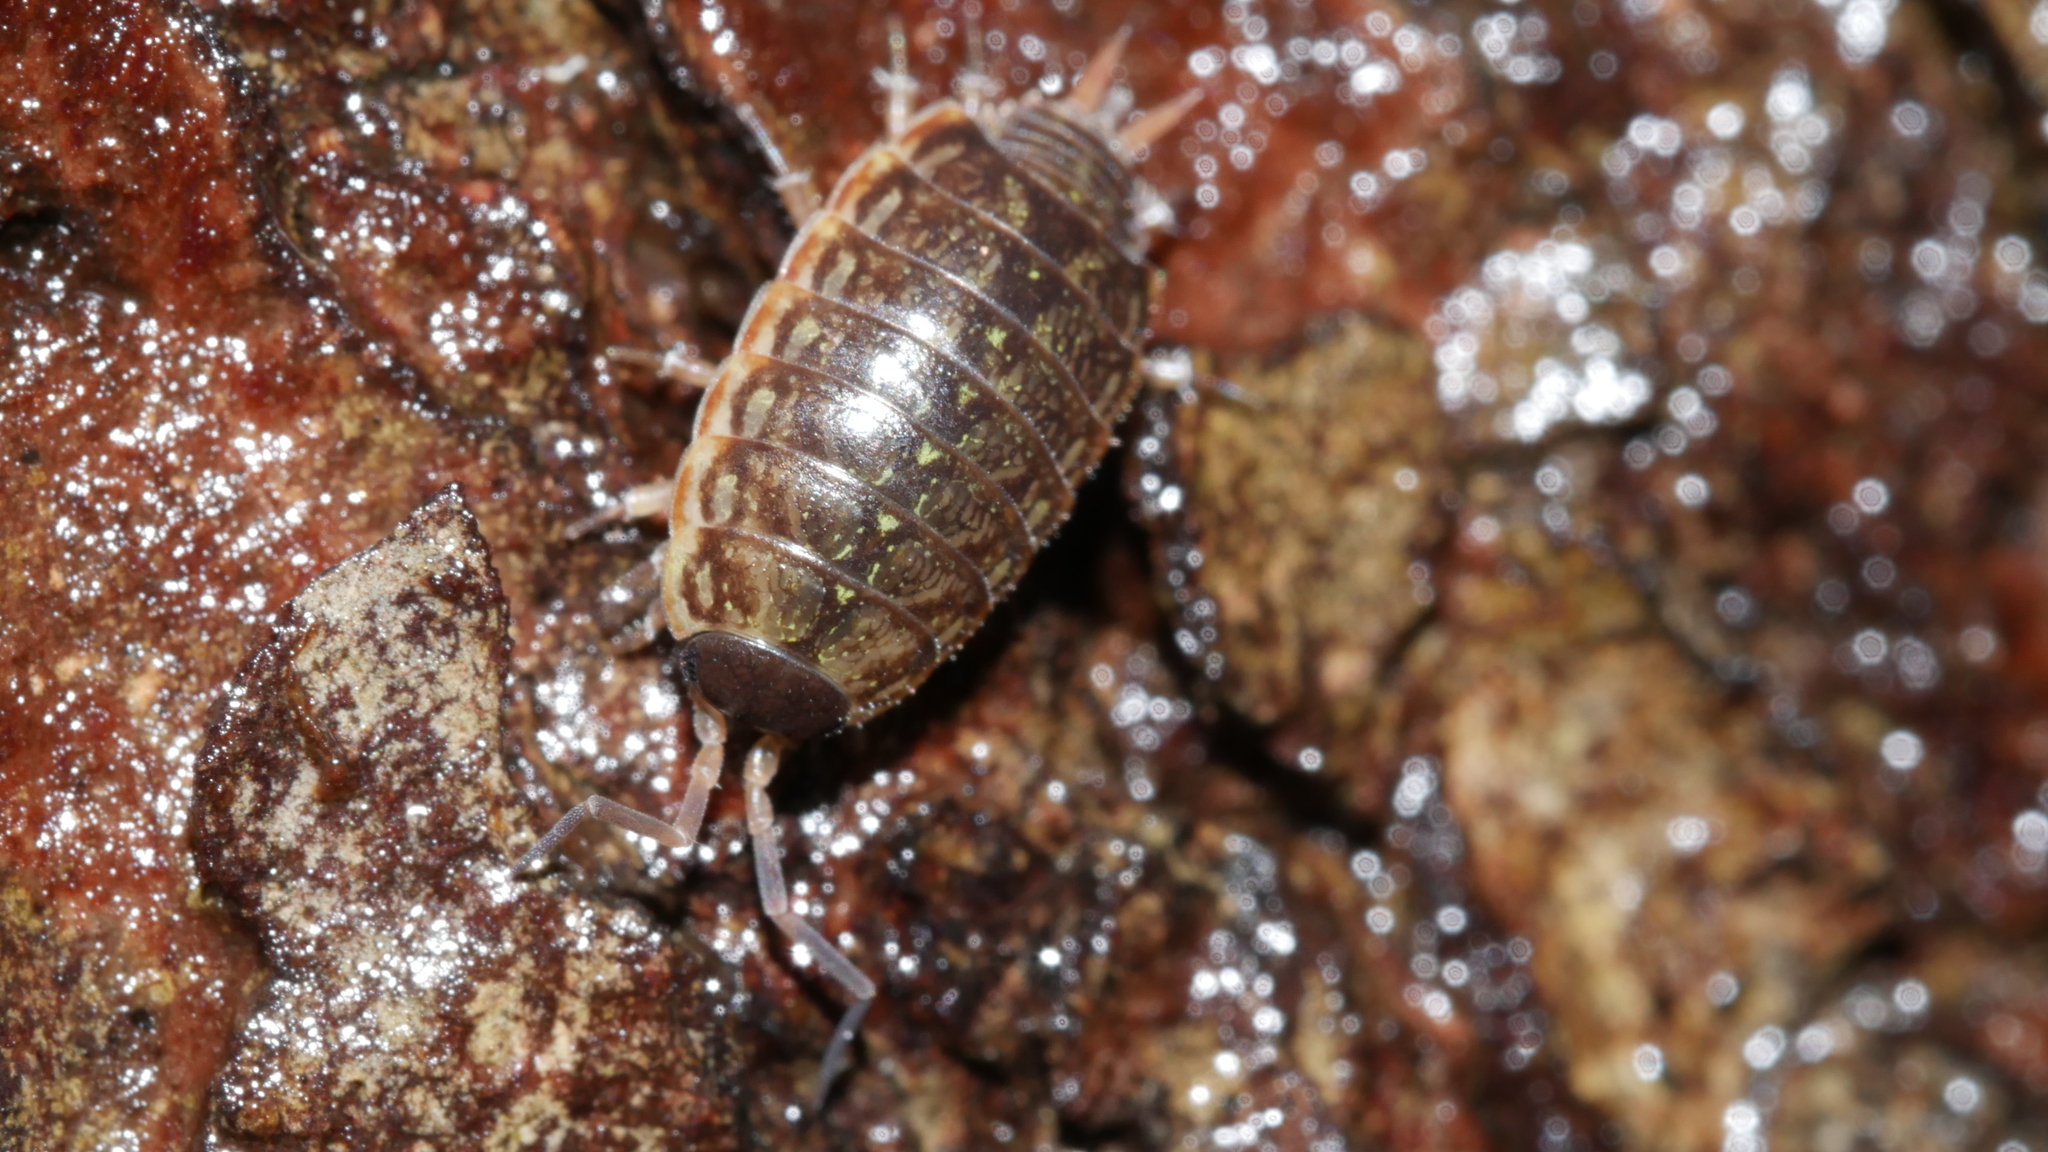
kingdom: Animalia
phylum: Arthropoda
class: Malacostraca
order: Isopoda
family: Philosciidae
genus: Philoscia
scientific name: Philoscia muscorum
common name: Common striped woodlouse
